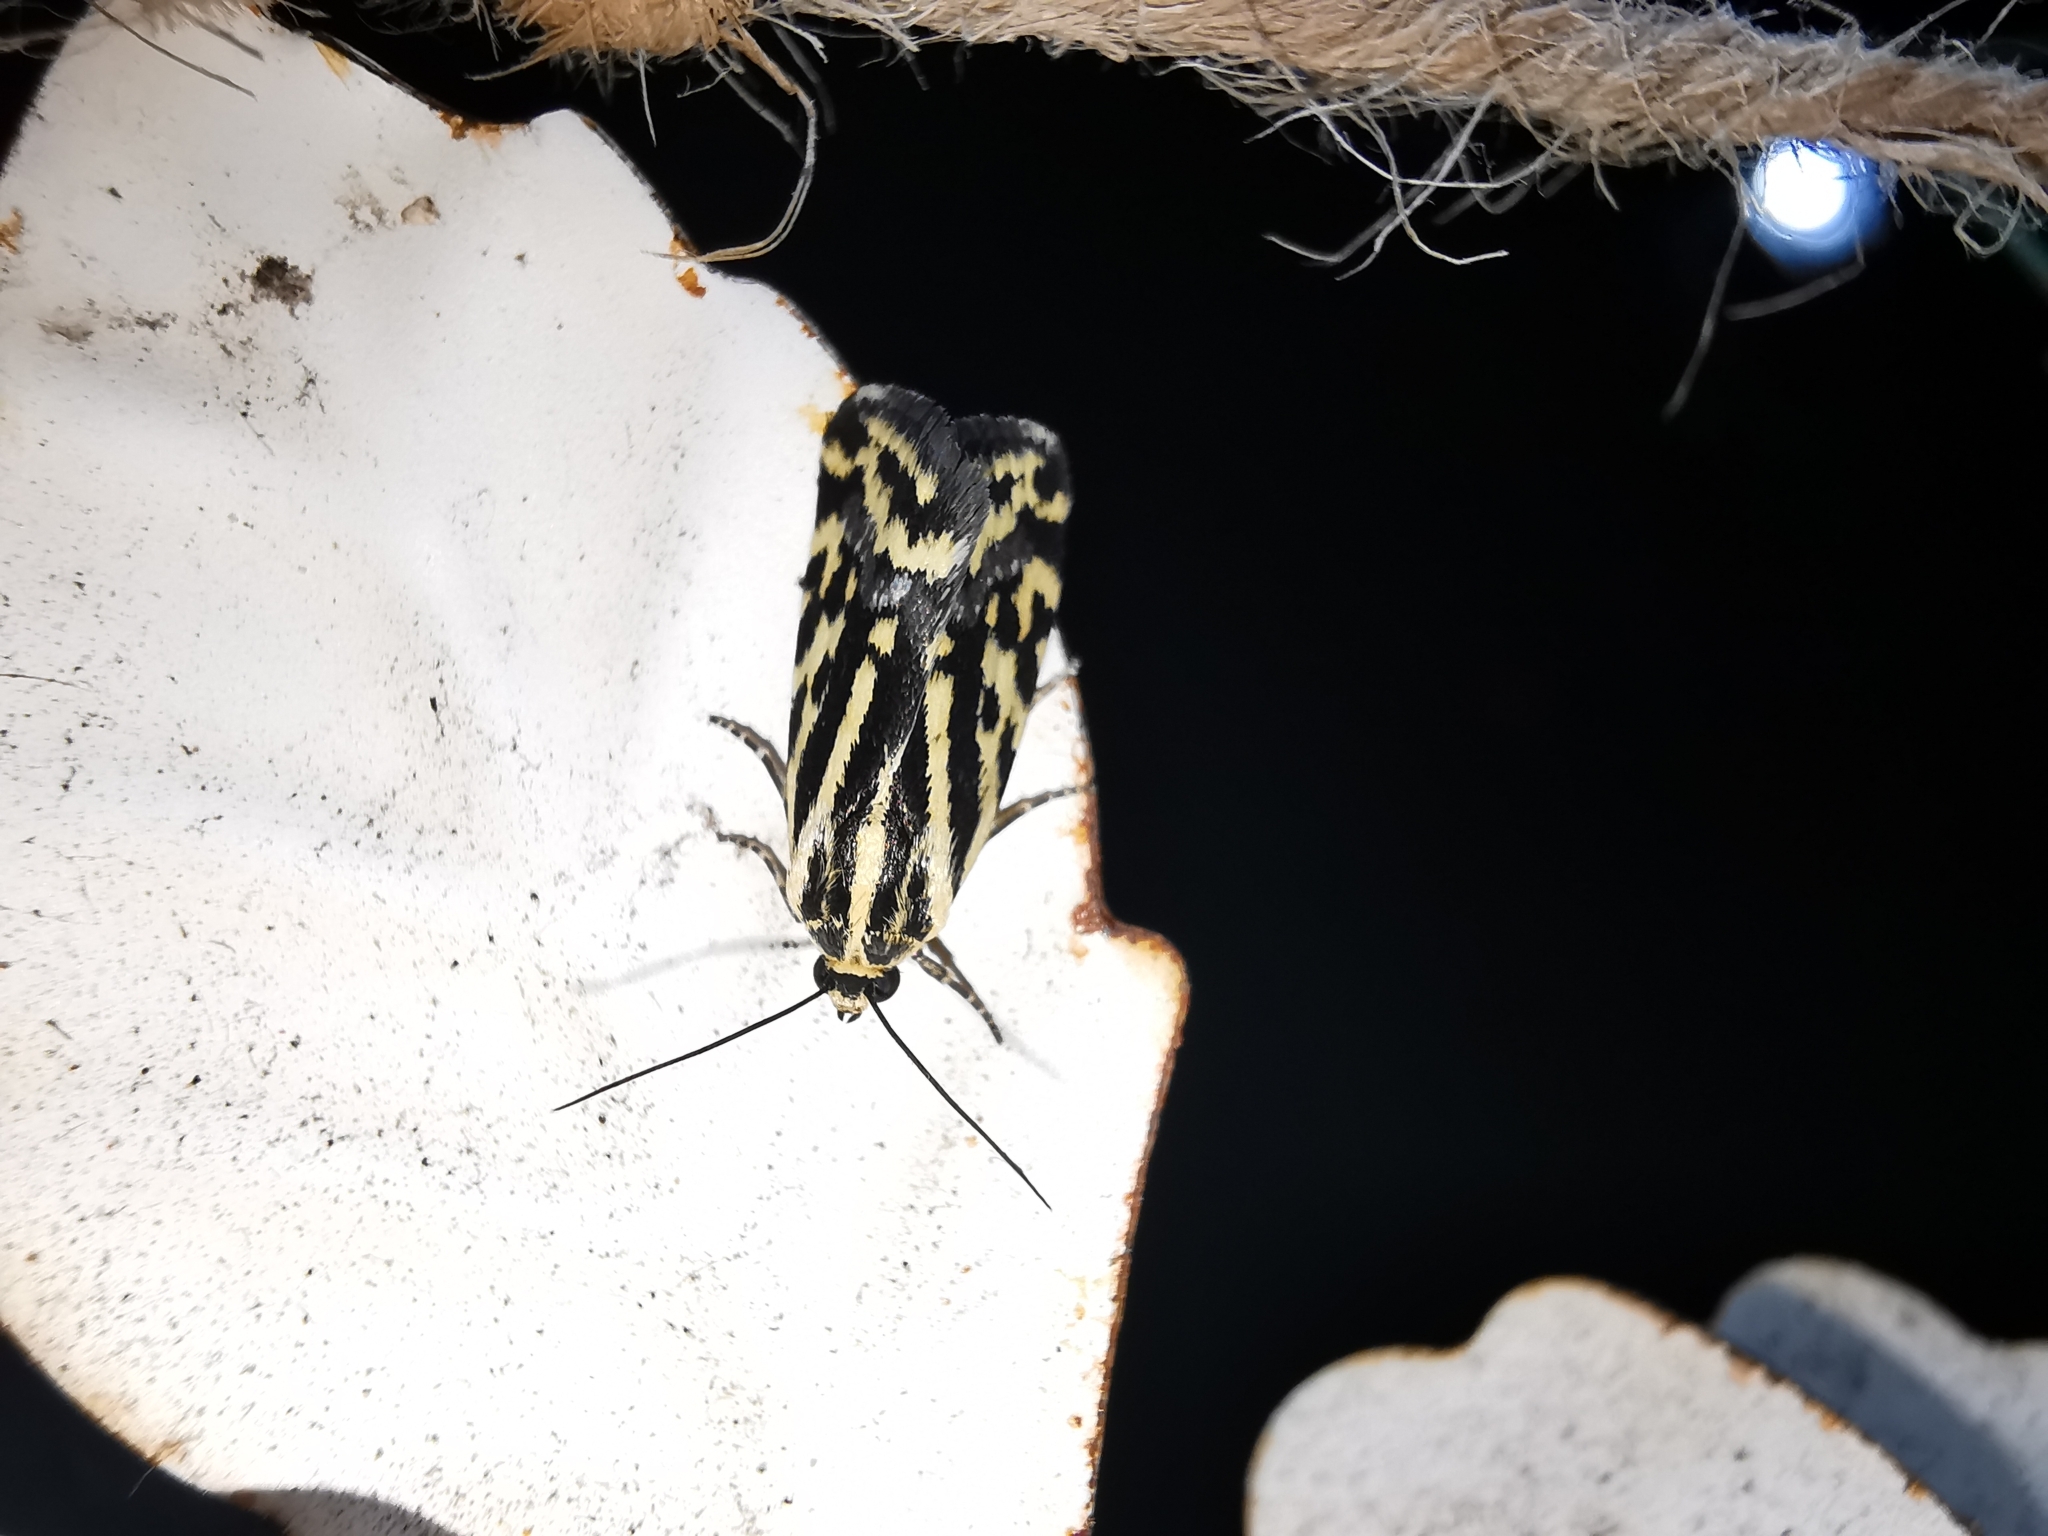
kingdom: Animalia
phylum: Arthropoda
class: Insecta
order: Lepidoptera
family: Noctuidae
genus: Acontia
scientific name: Acontia trabealis
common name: Spotted sulphur
